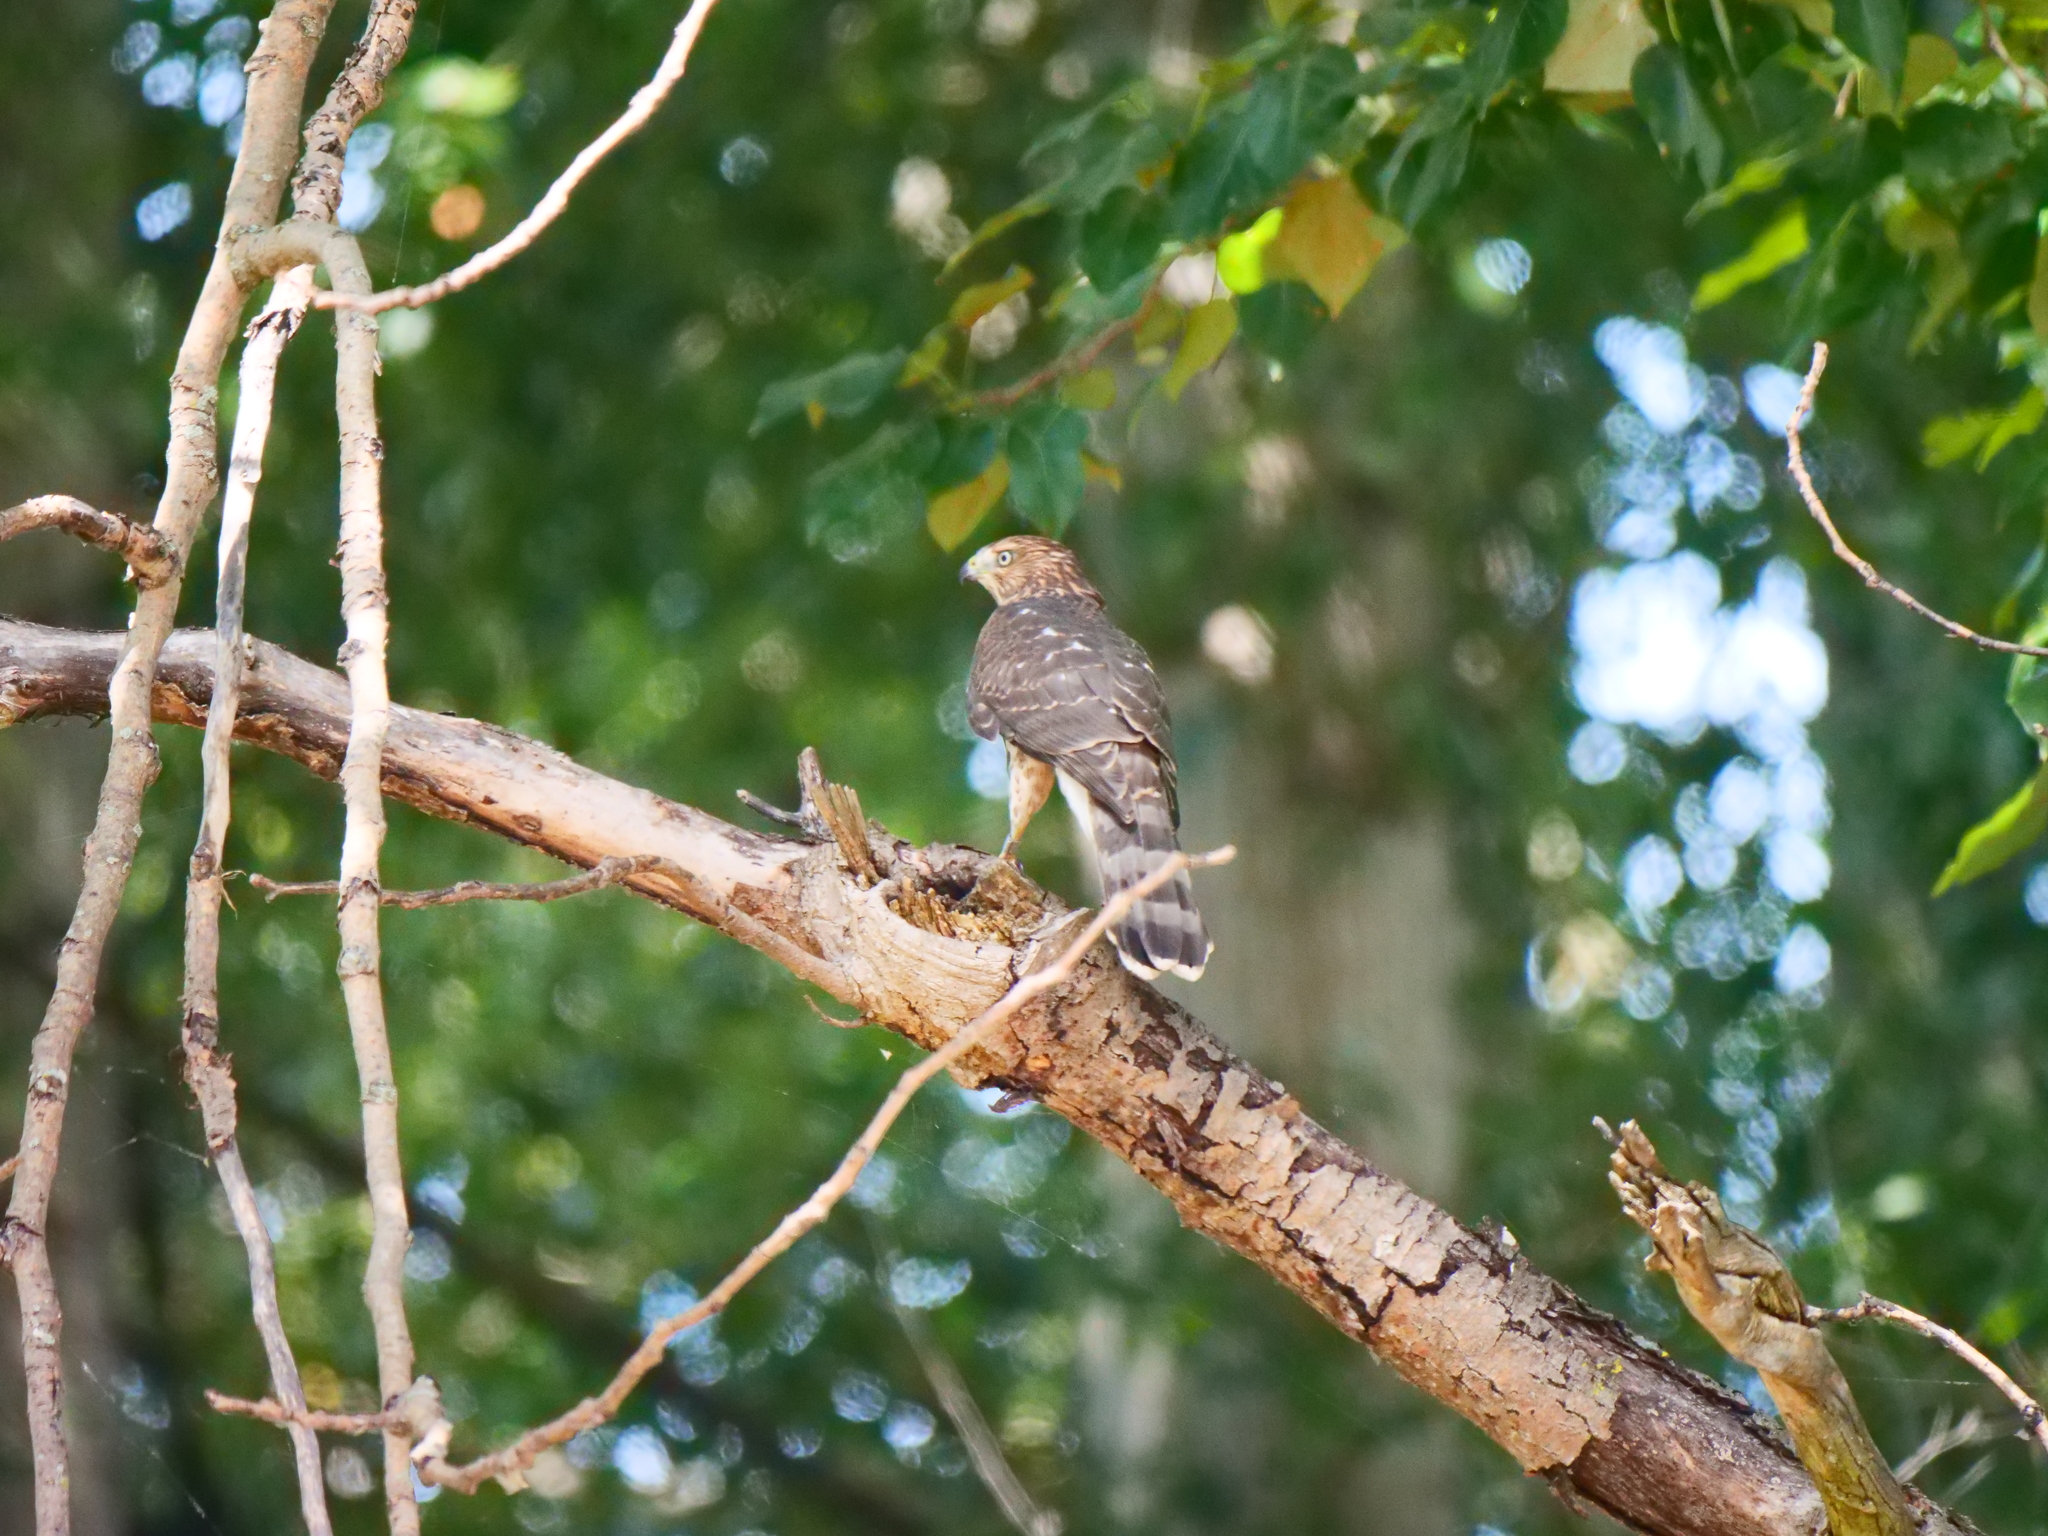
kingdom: Animalia
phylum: Chordata
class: Aves
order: Accipitriformes
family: Accipitridae
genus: Accipiter
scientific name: Accipiter cooperii
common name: Cooper's hawk
